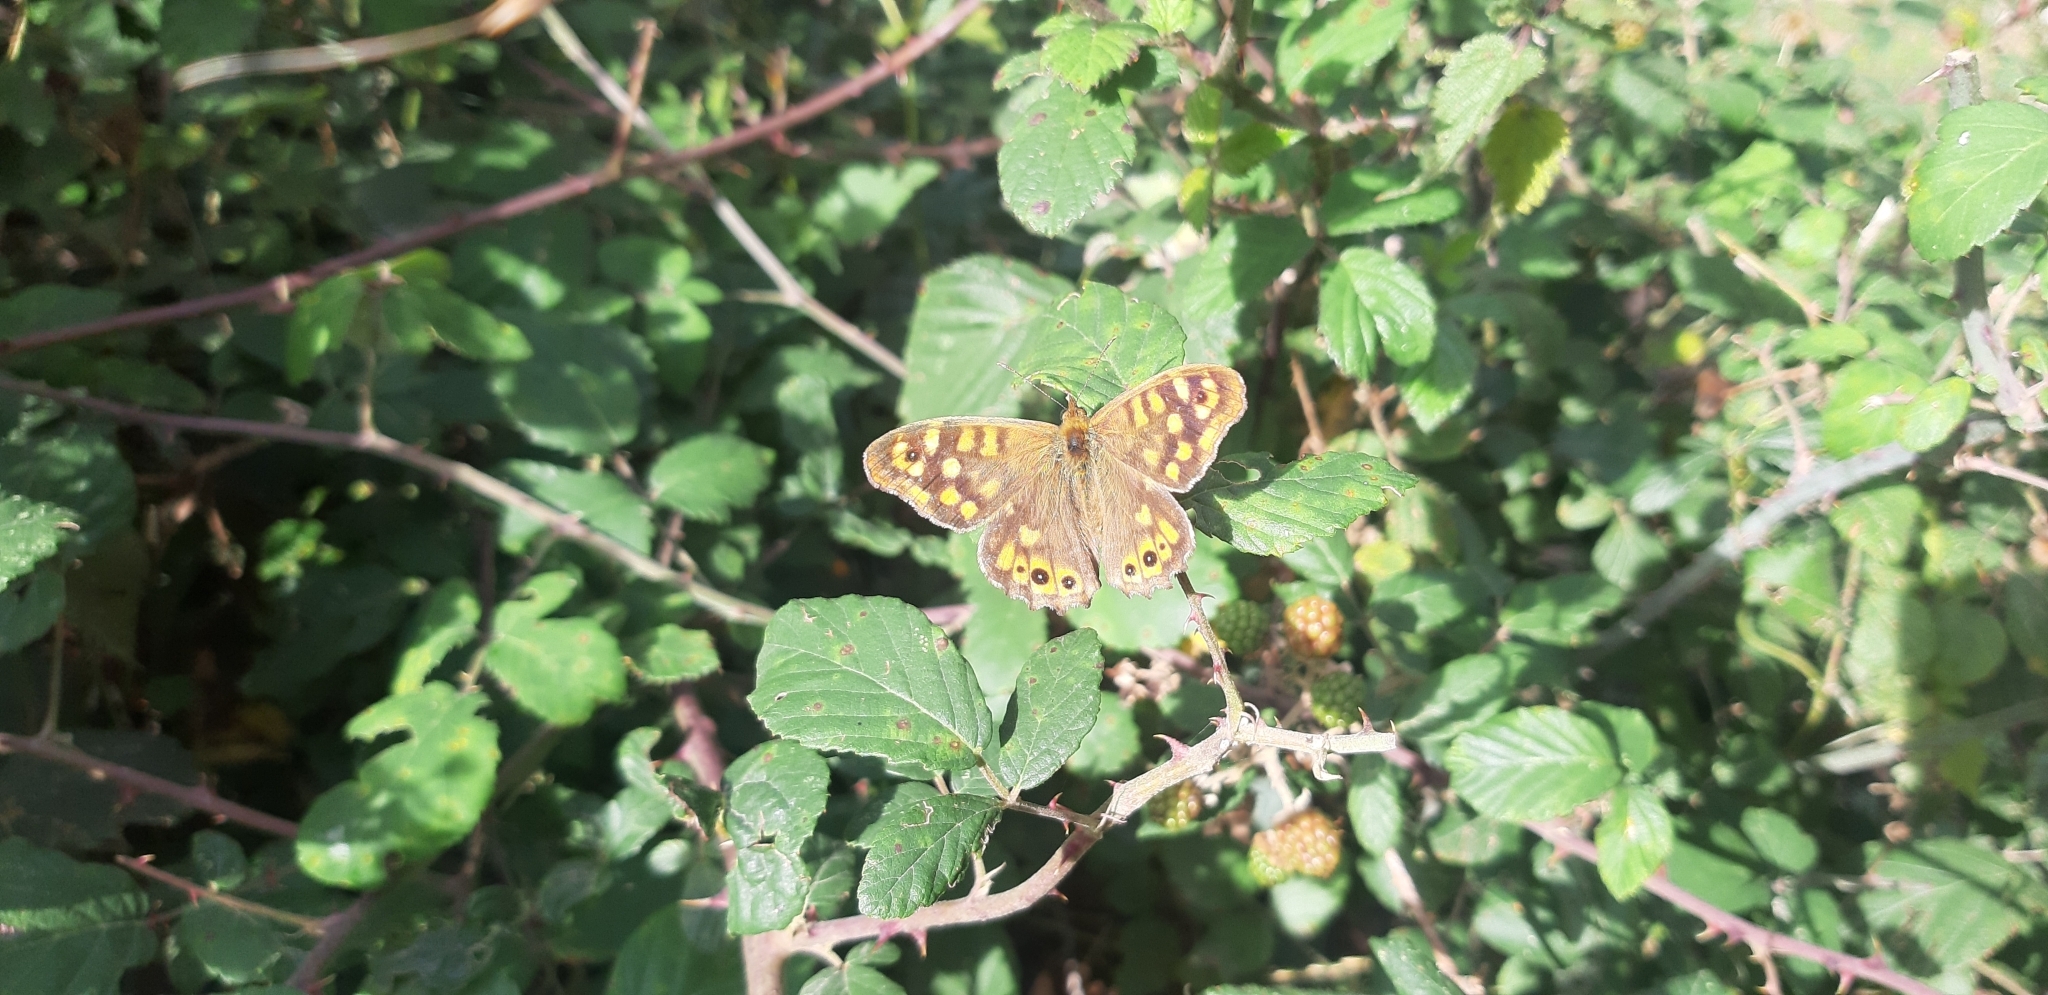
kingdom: Animalia
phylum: Arthropoda
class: Insecta
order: Lepidoptera
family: Nymphalidae
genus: Pararge
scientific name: Pararge aegeria
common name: Speckled wood
